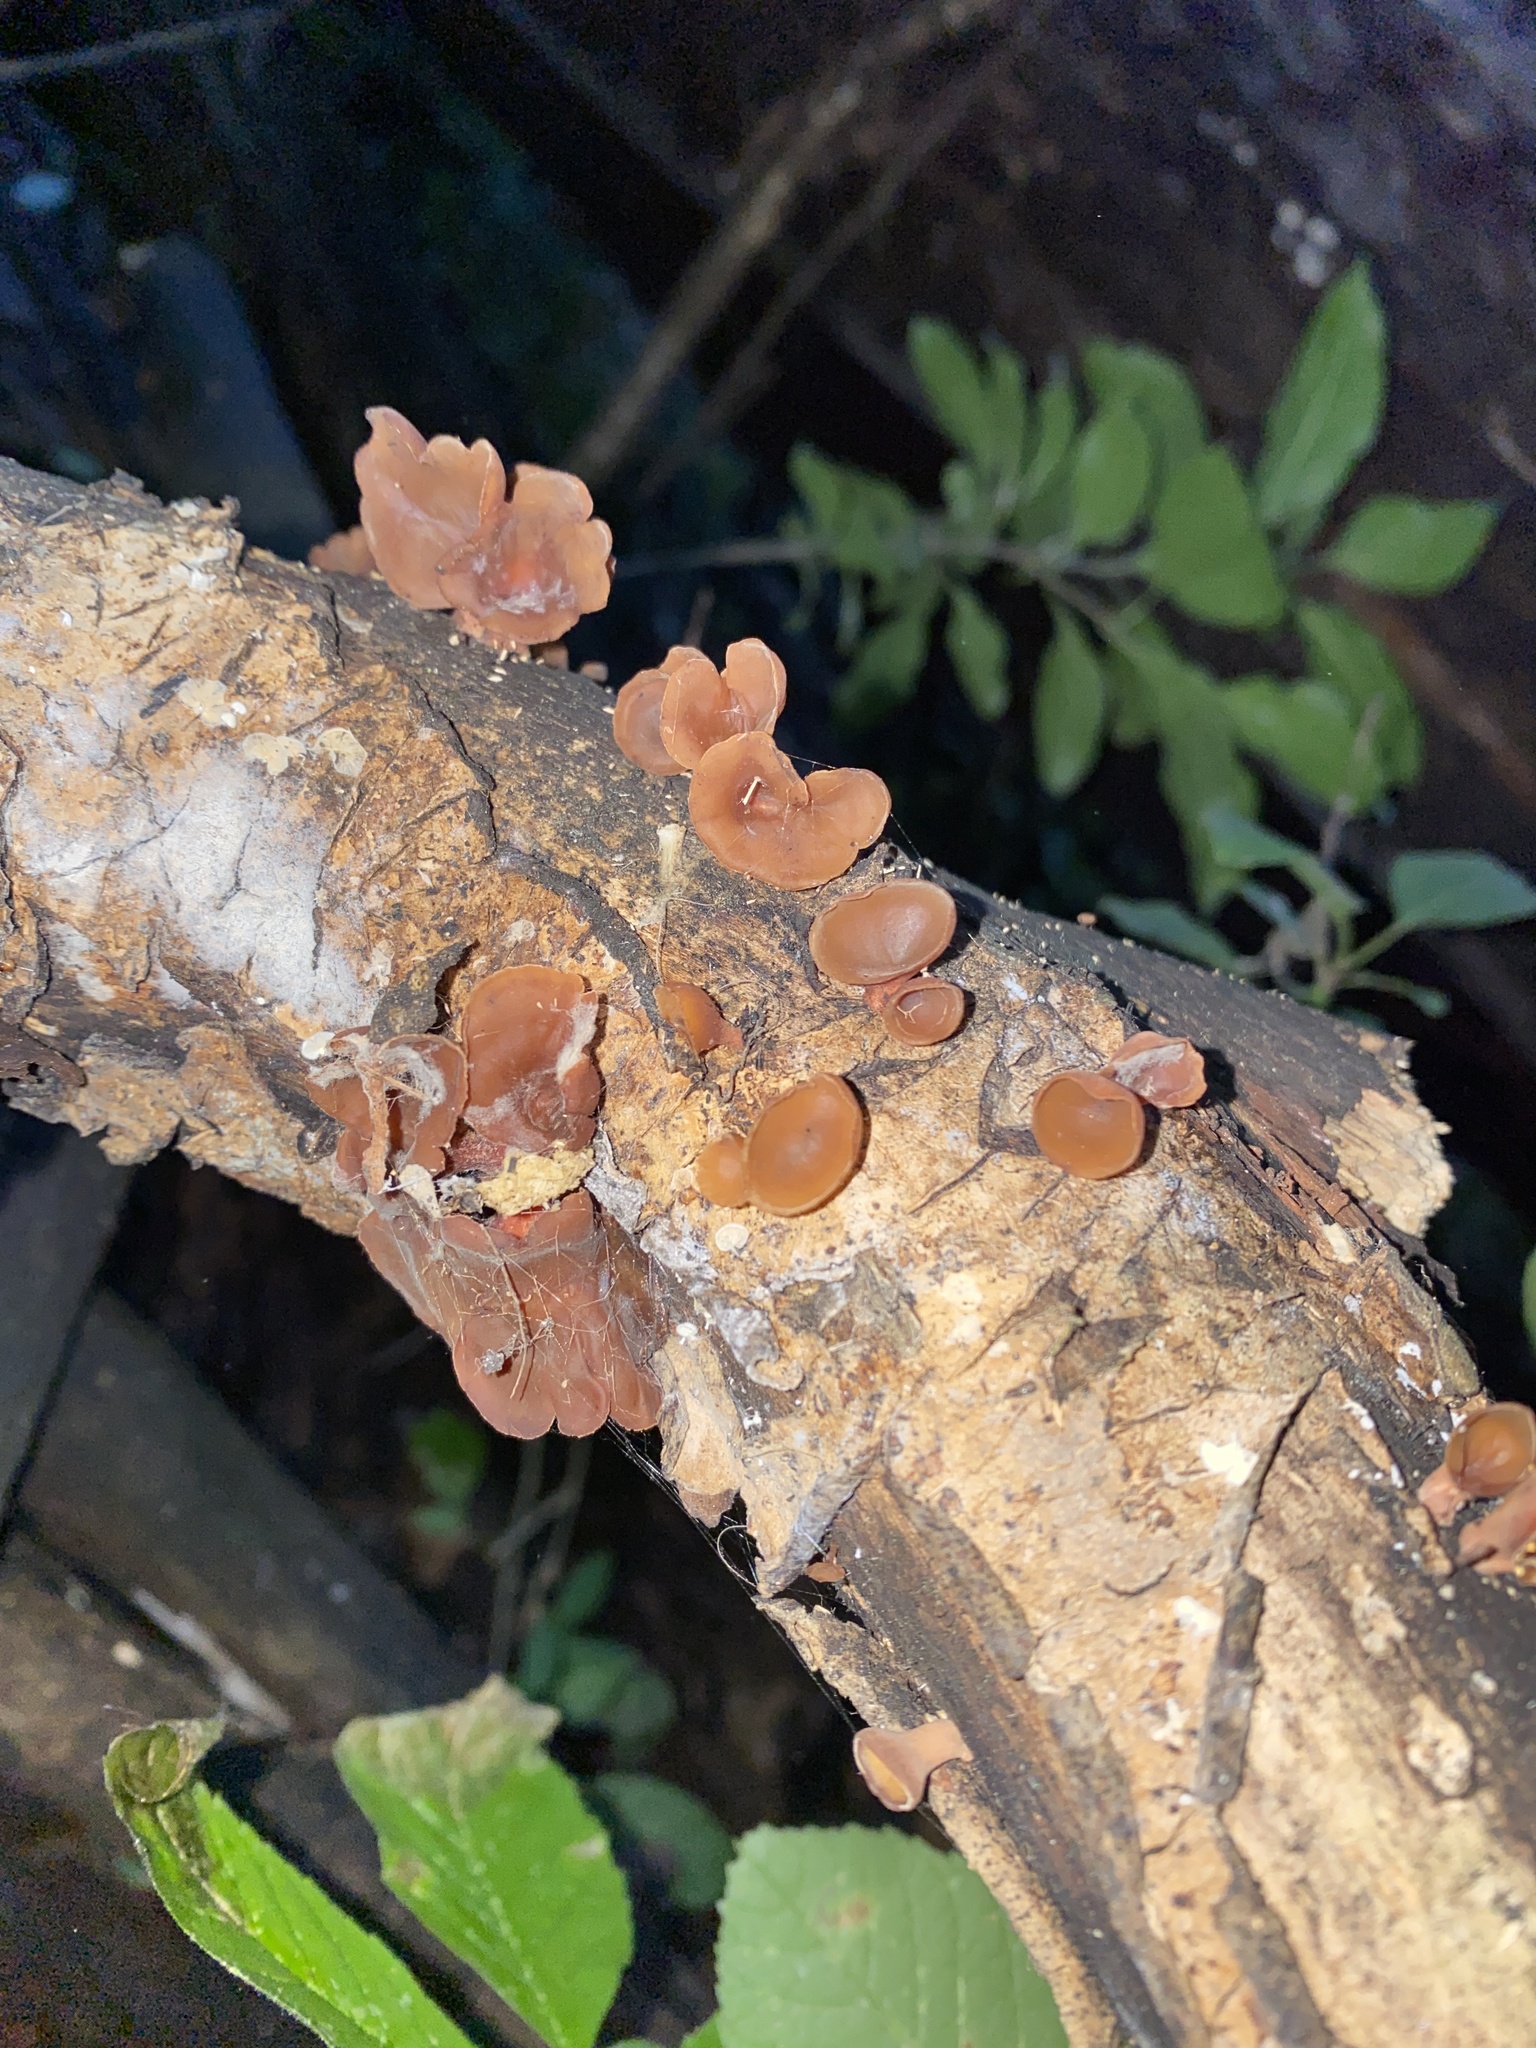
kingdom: Fungi
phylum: Basidiomycota
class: Dacrymycetes
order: Dacrymycetales
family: Dacrymycetaceae
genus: Dacryopinax
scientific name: Dacryopinax elegans
